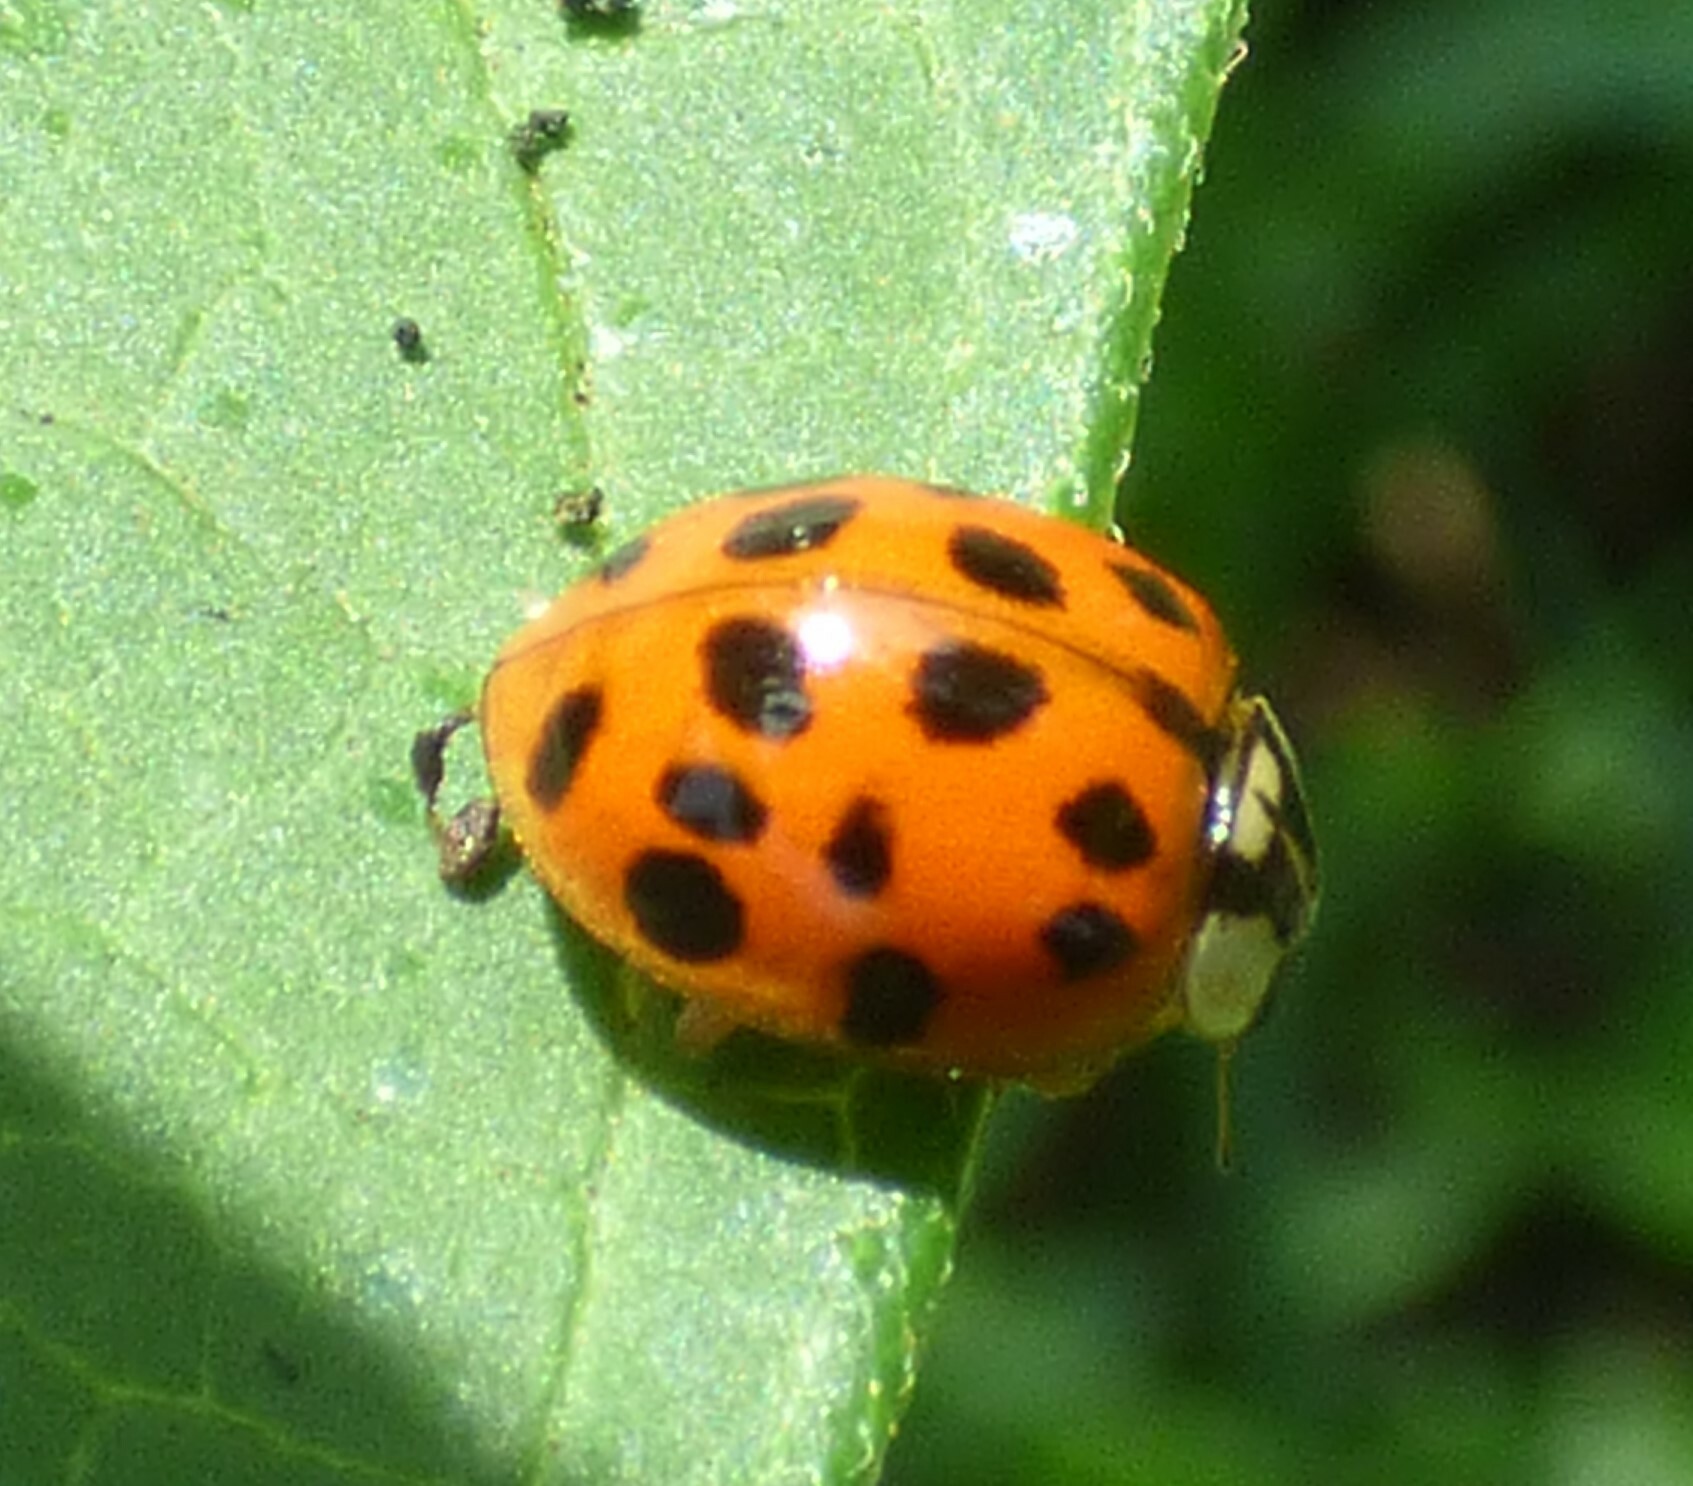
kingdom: Animalia
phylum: Arthropoda
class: Insecta
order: Coleoptera
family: Coccinellidae
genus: Harmonia
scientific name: Harmonia axyridis
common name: Harlequin ladybird
